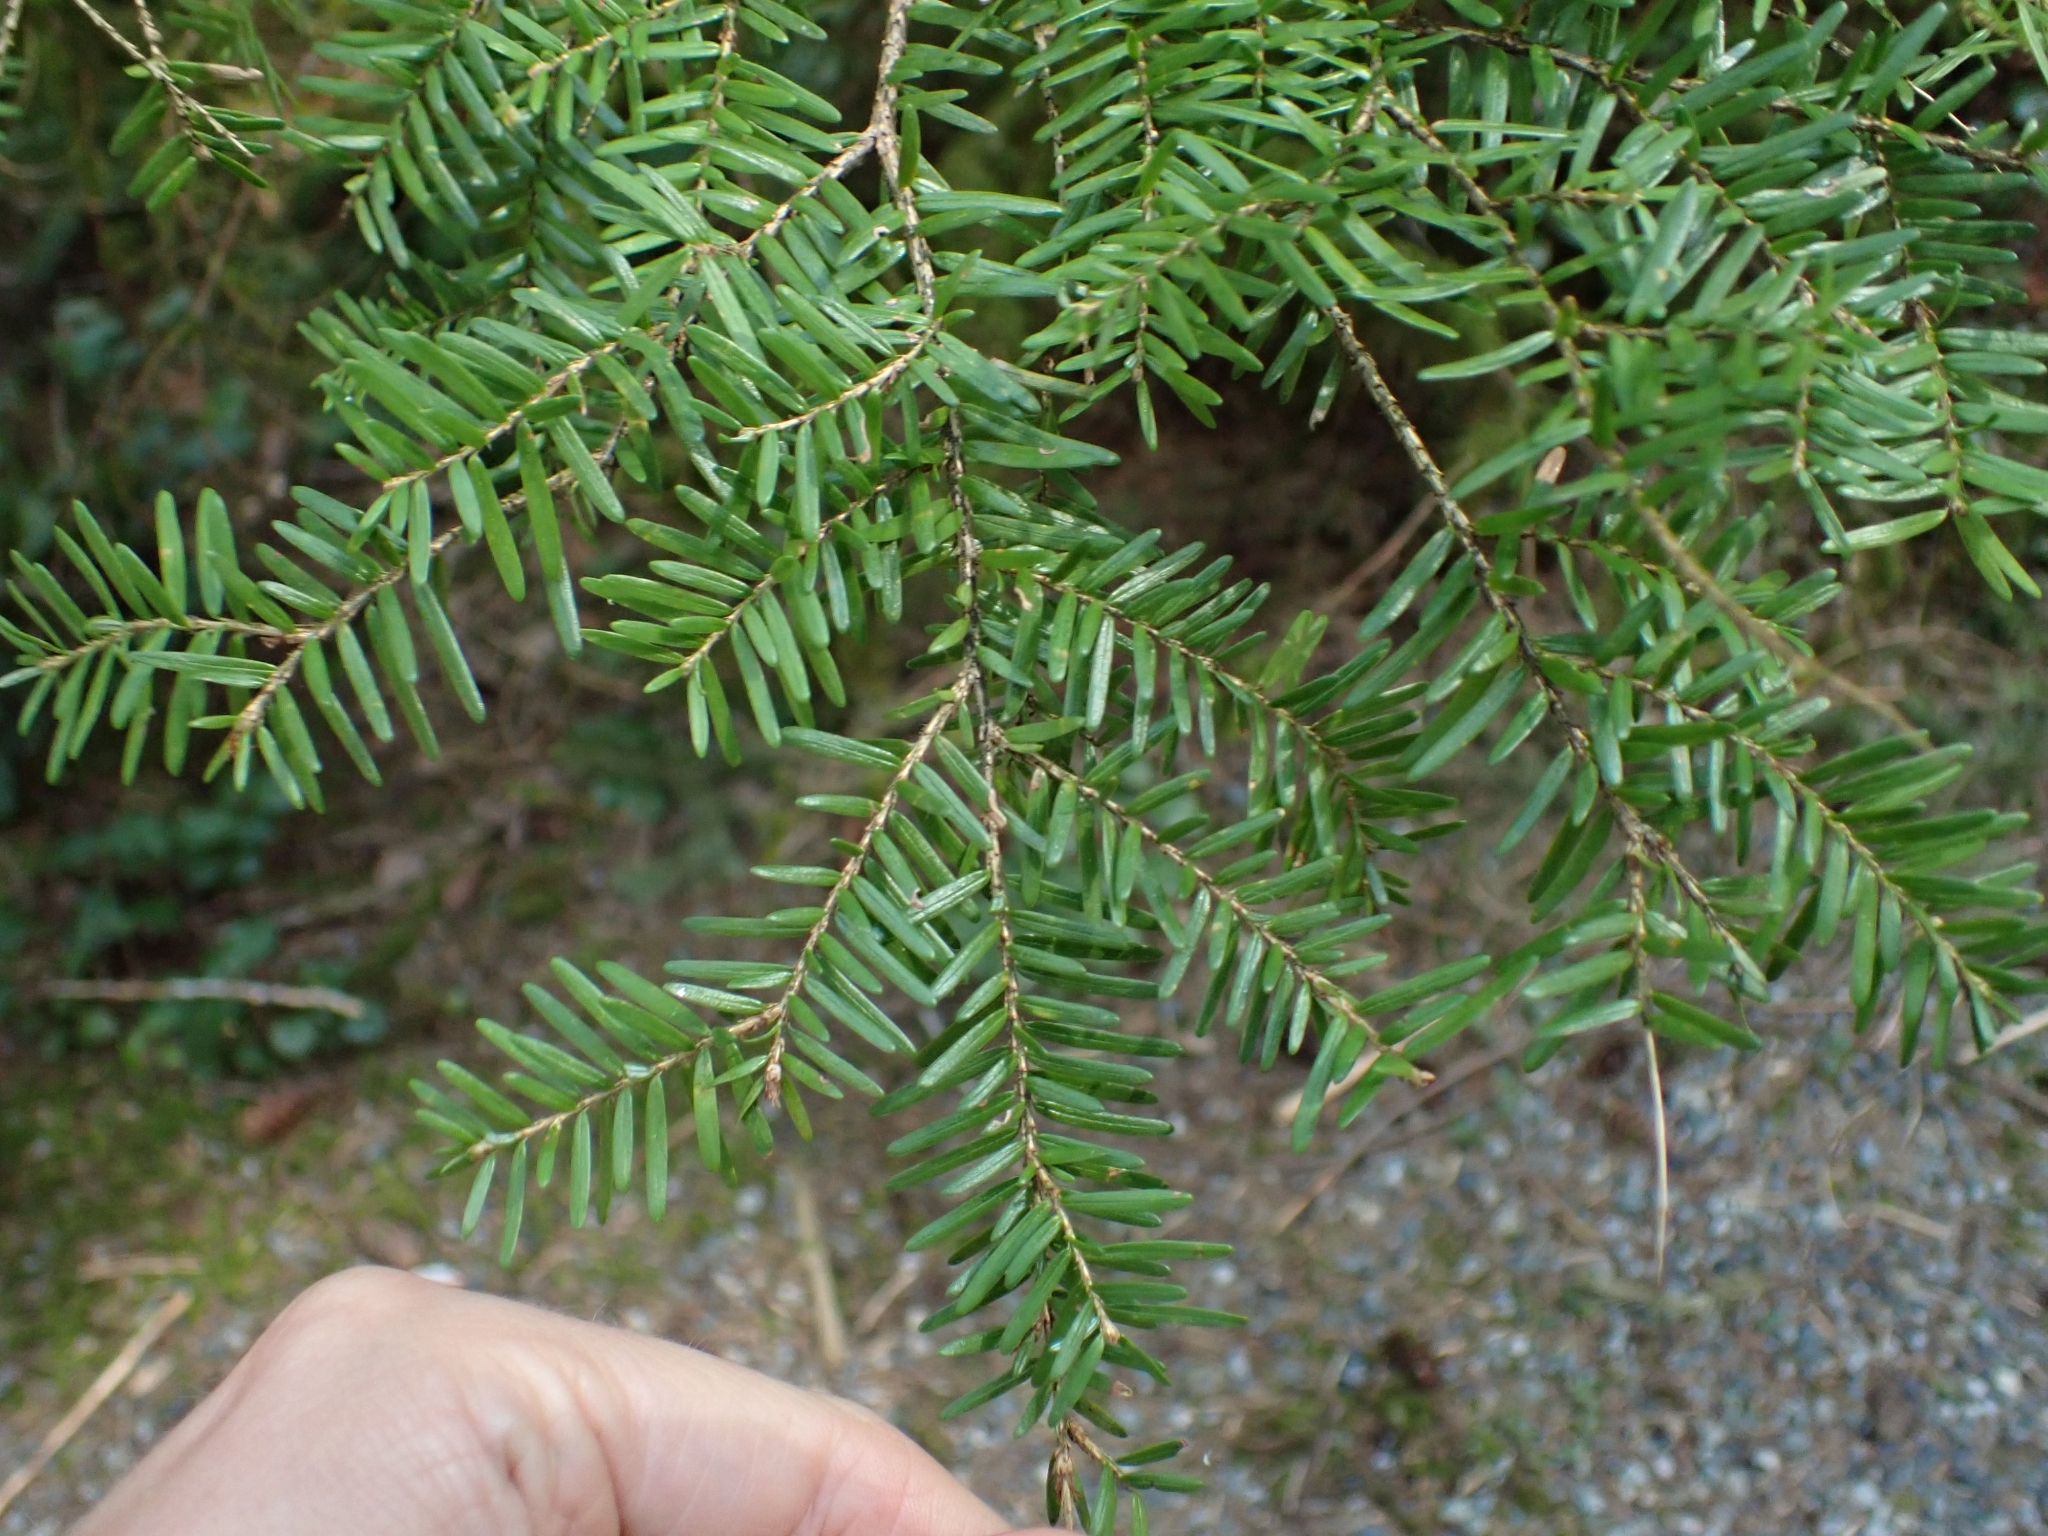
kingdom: Plantae
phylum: Tracheophyta
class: Pinopsida
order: Pinales
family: Pinaceae
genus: Tsuga
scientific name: Tsuga heterophylla
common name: Western hemlock
